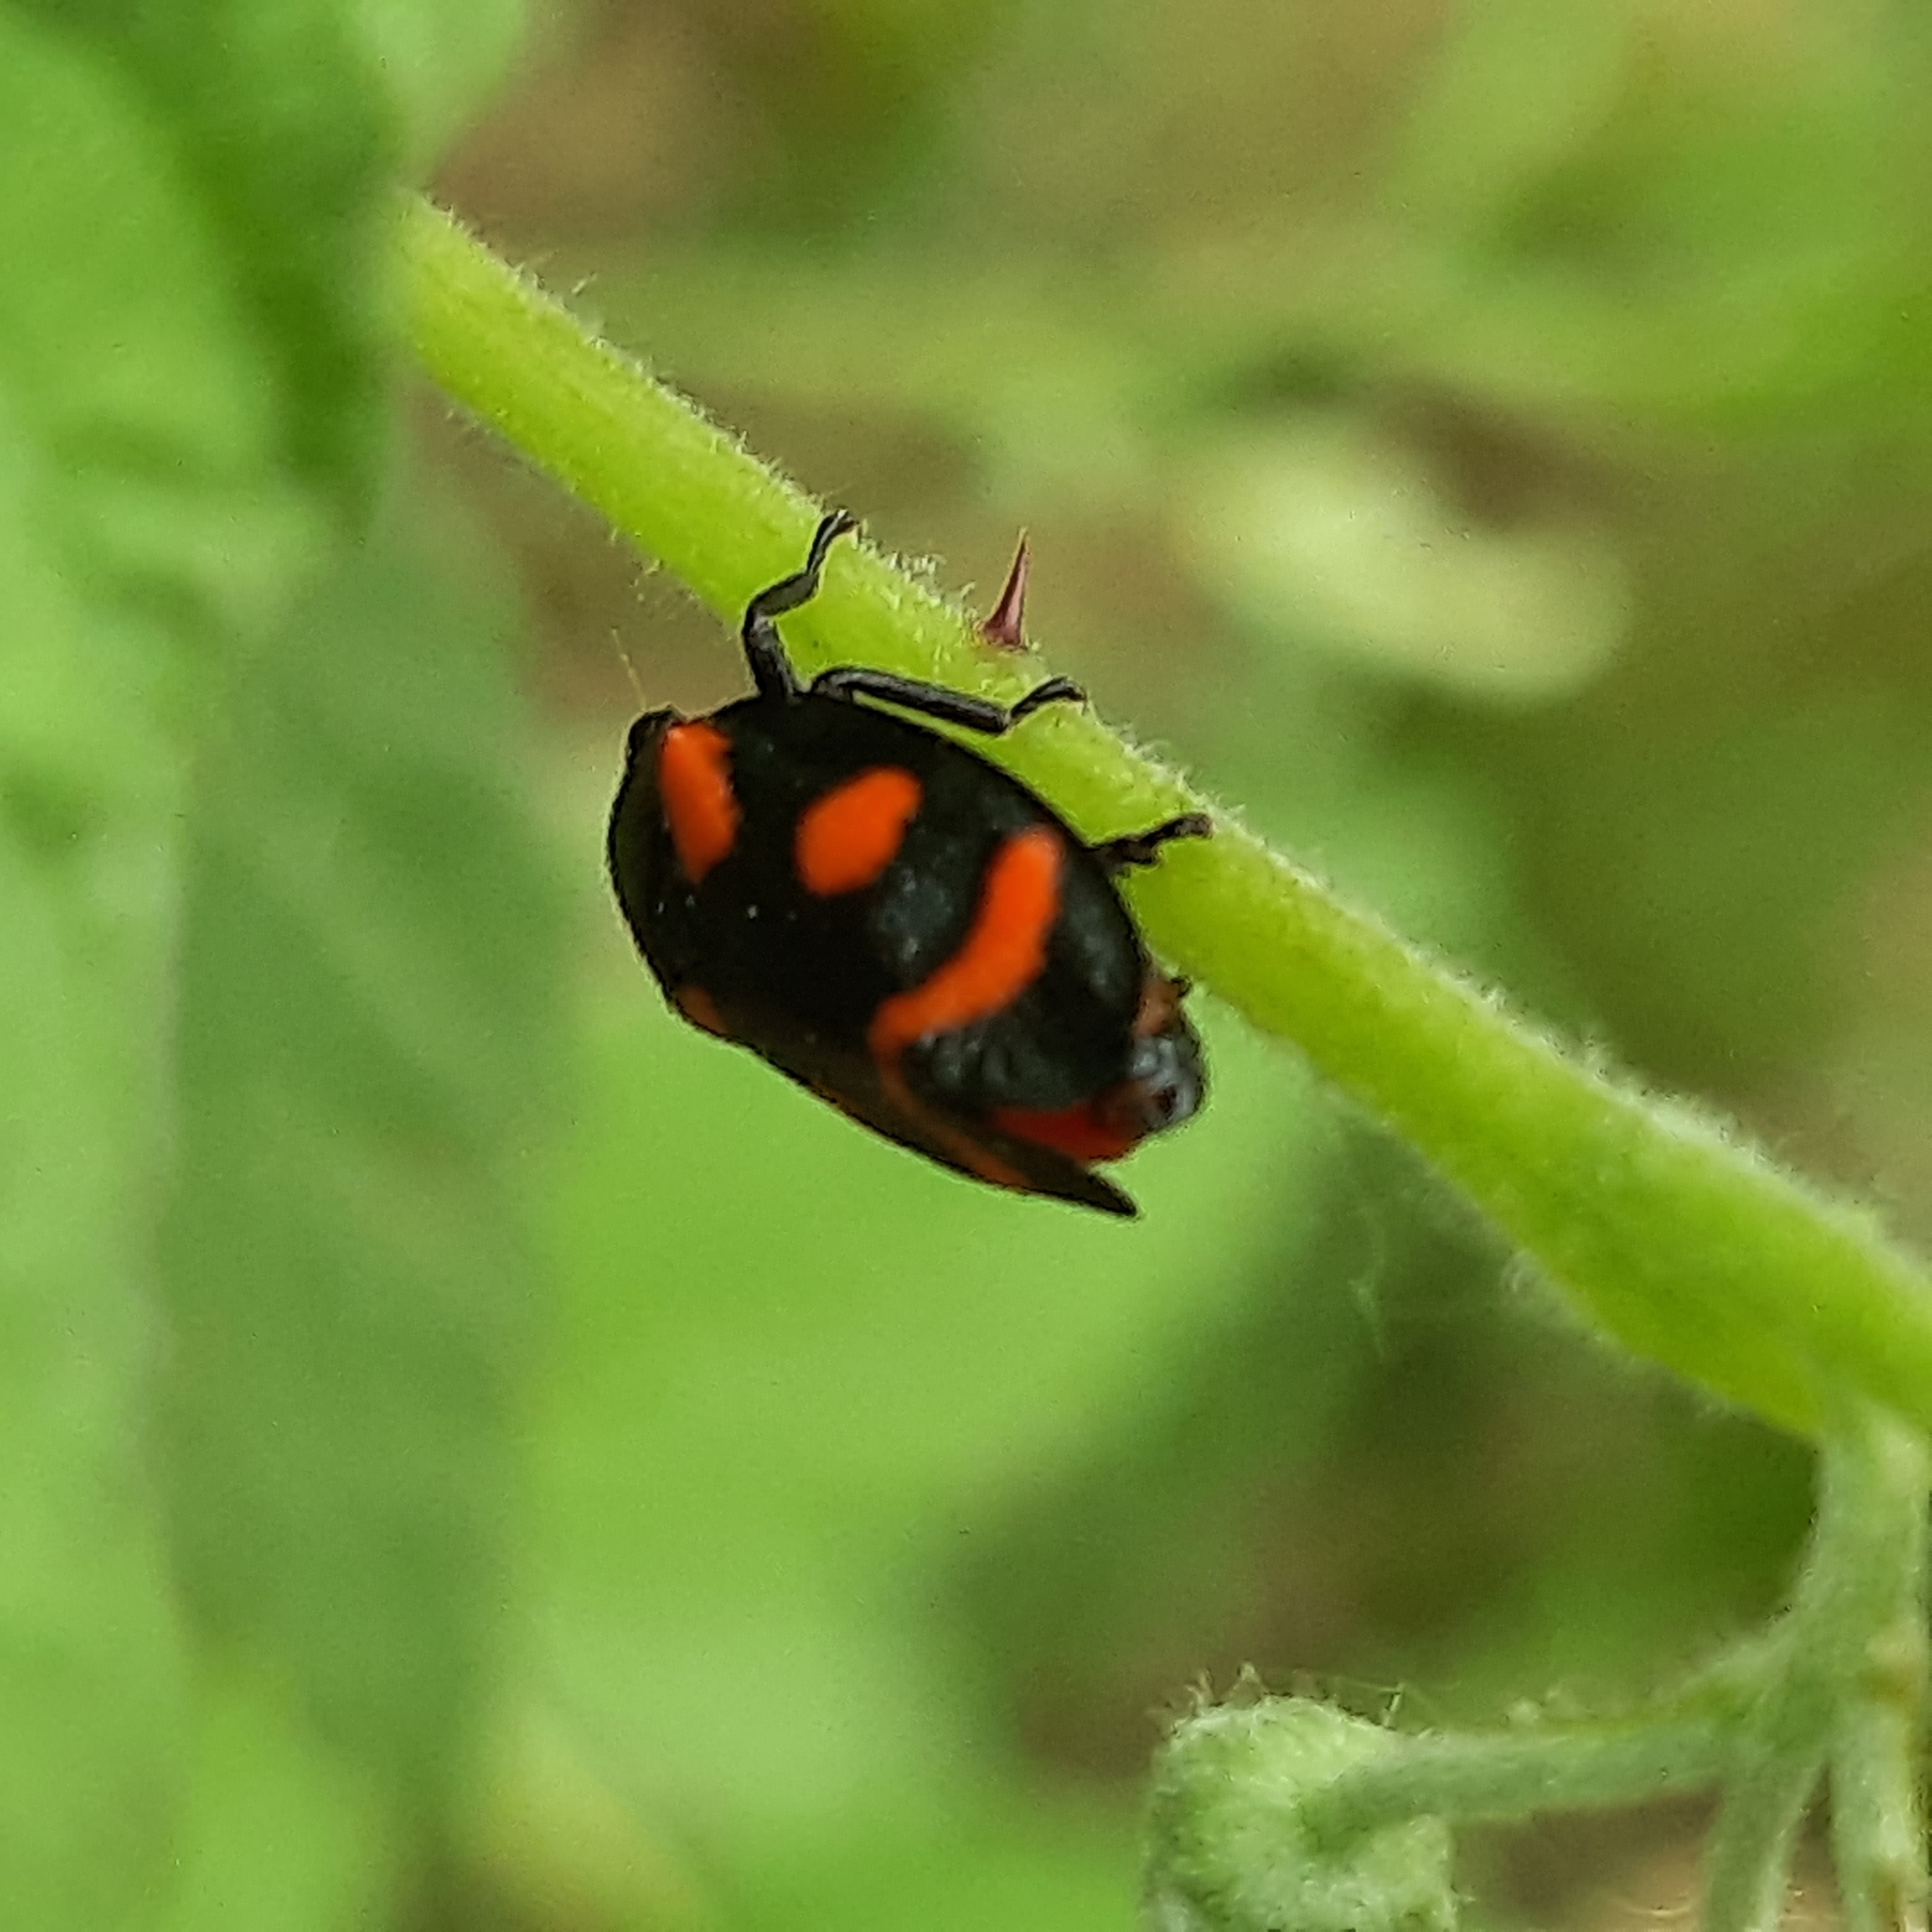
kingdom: Animalia
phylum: Arthropoda
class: Insecta
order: Hemiptera
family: Cercopidae
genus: Cercopis
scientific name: Cercopis arcuata
